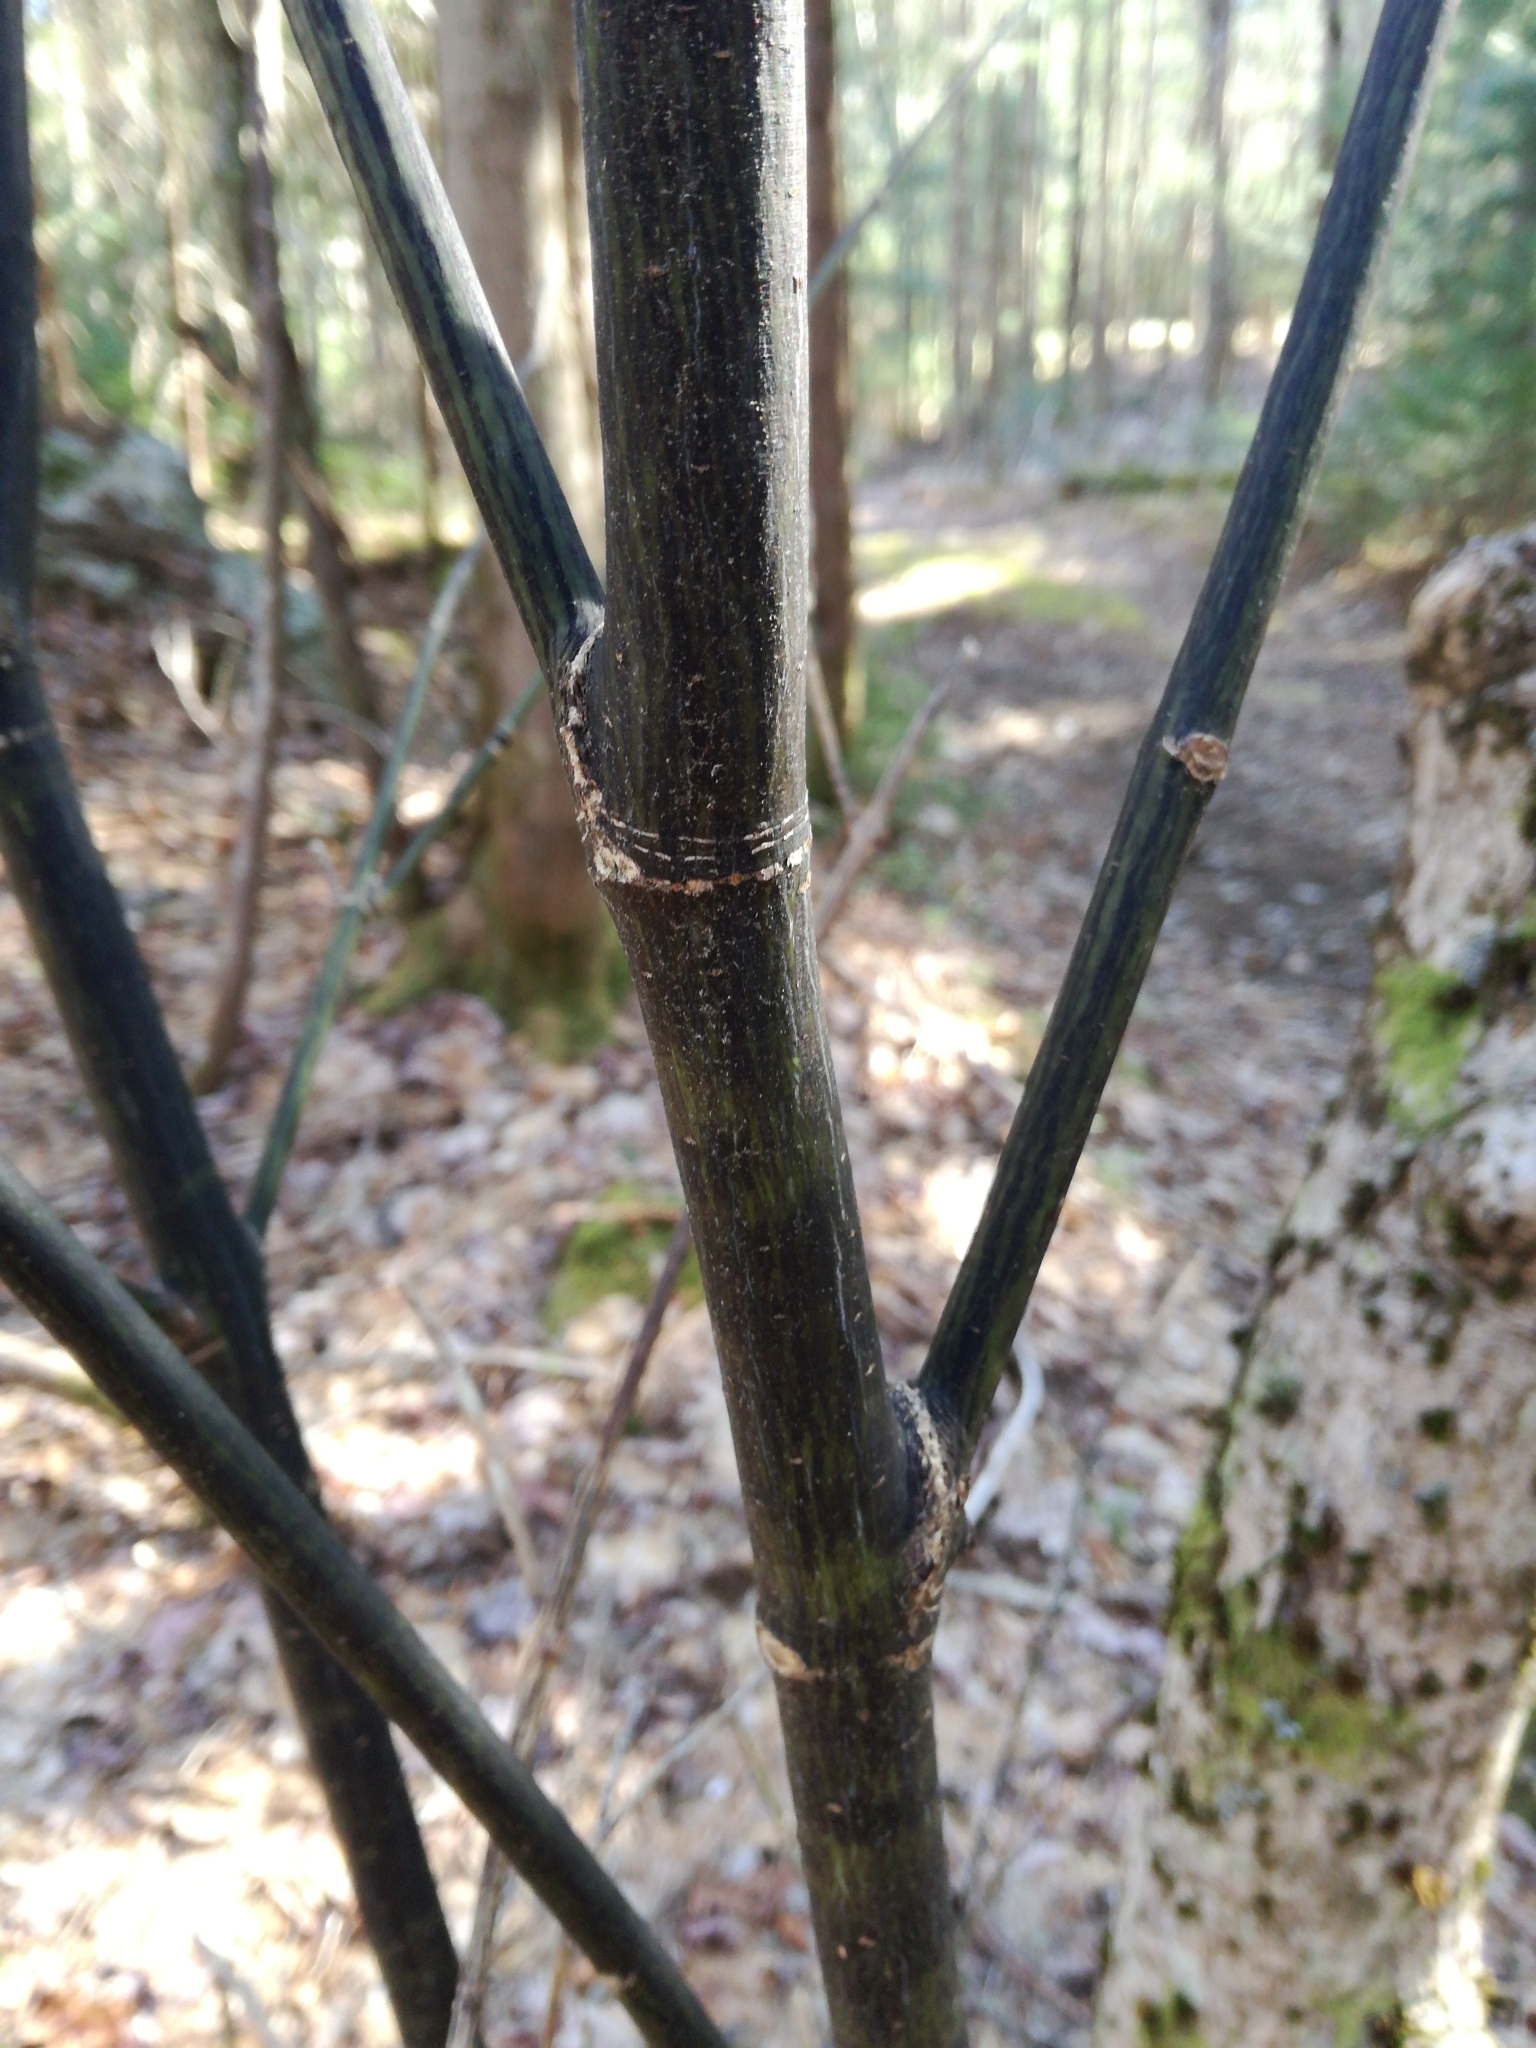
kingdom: Plantae
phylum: Tracheophyta
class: Magnoliopsida
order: Sapindales
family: Sapindaceae
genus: Acer
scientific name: Acer pensylvanicum
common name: Moosewood
